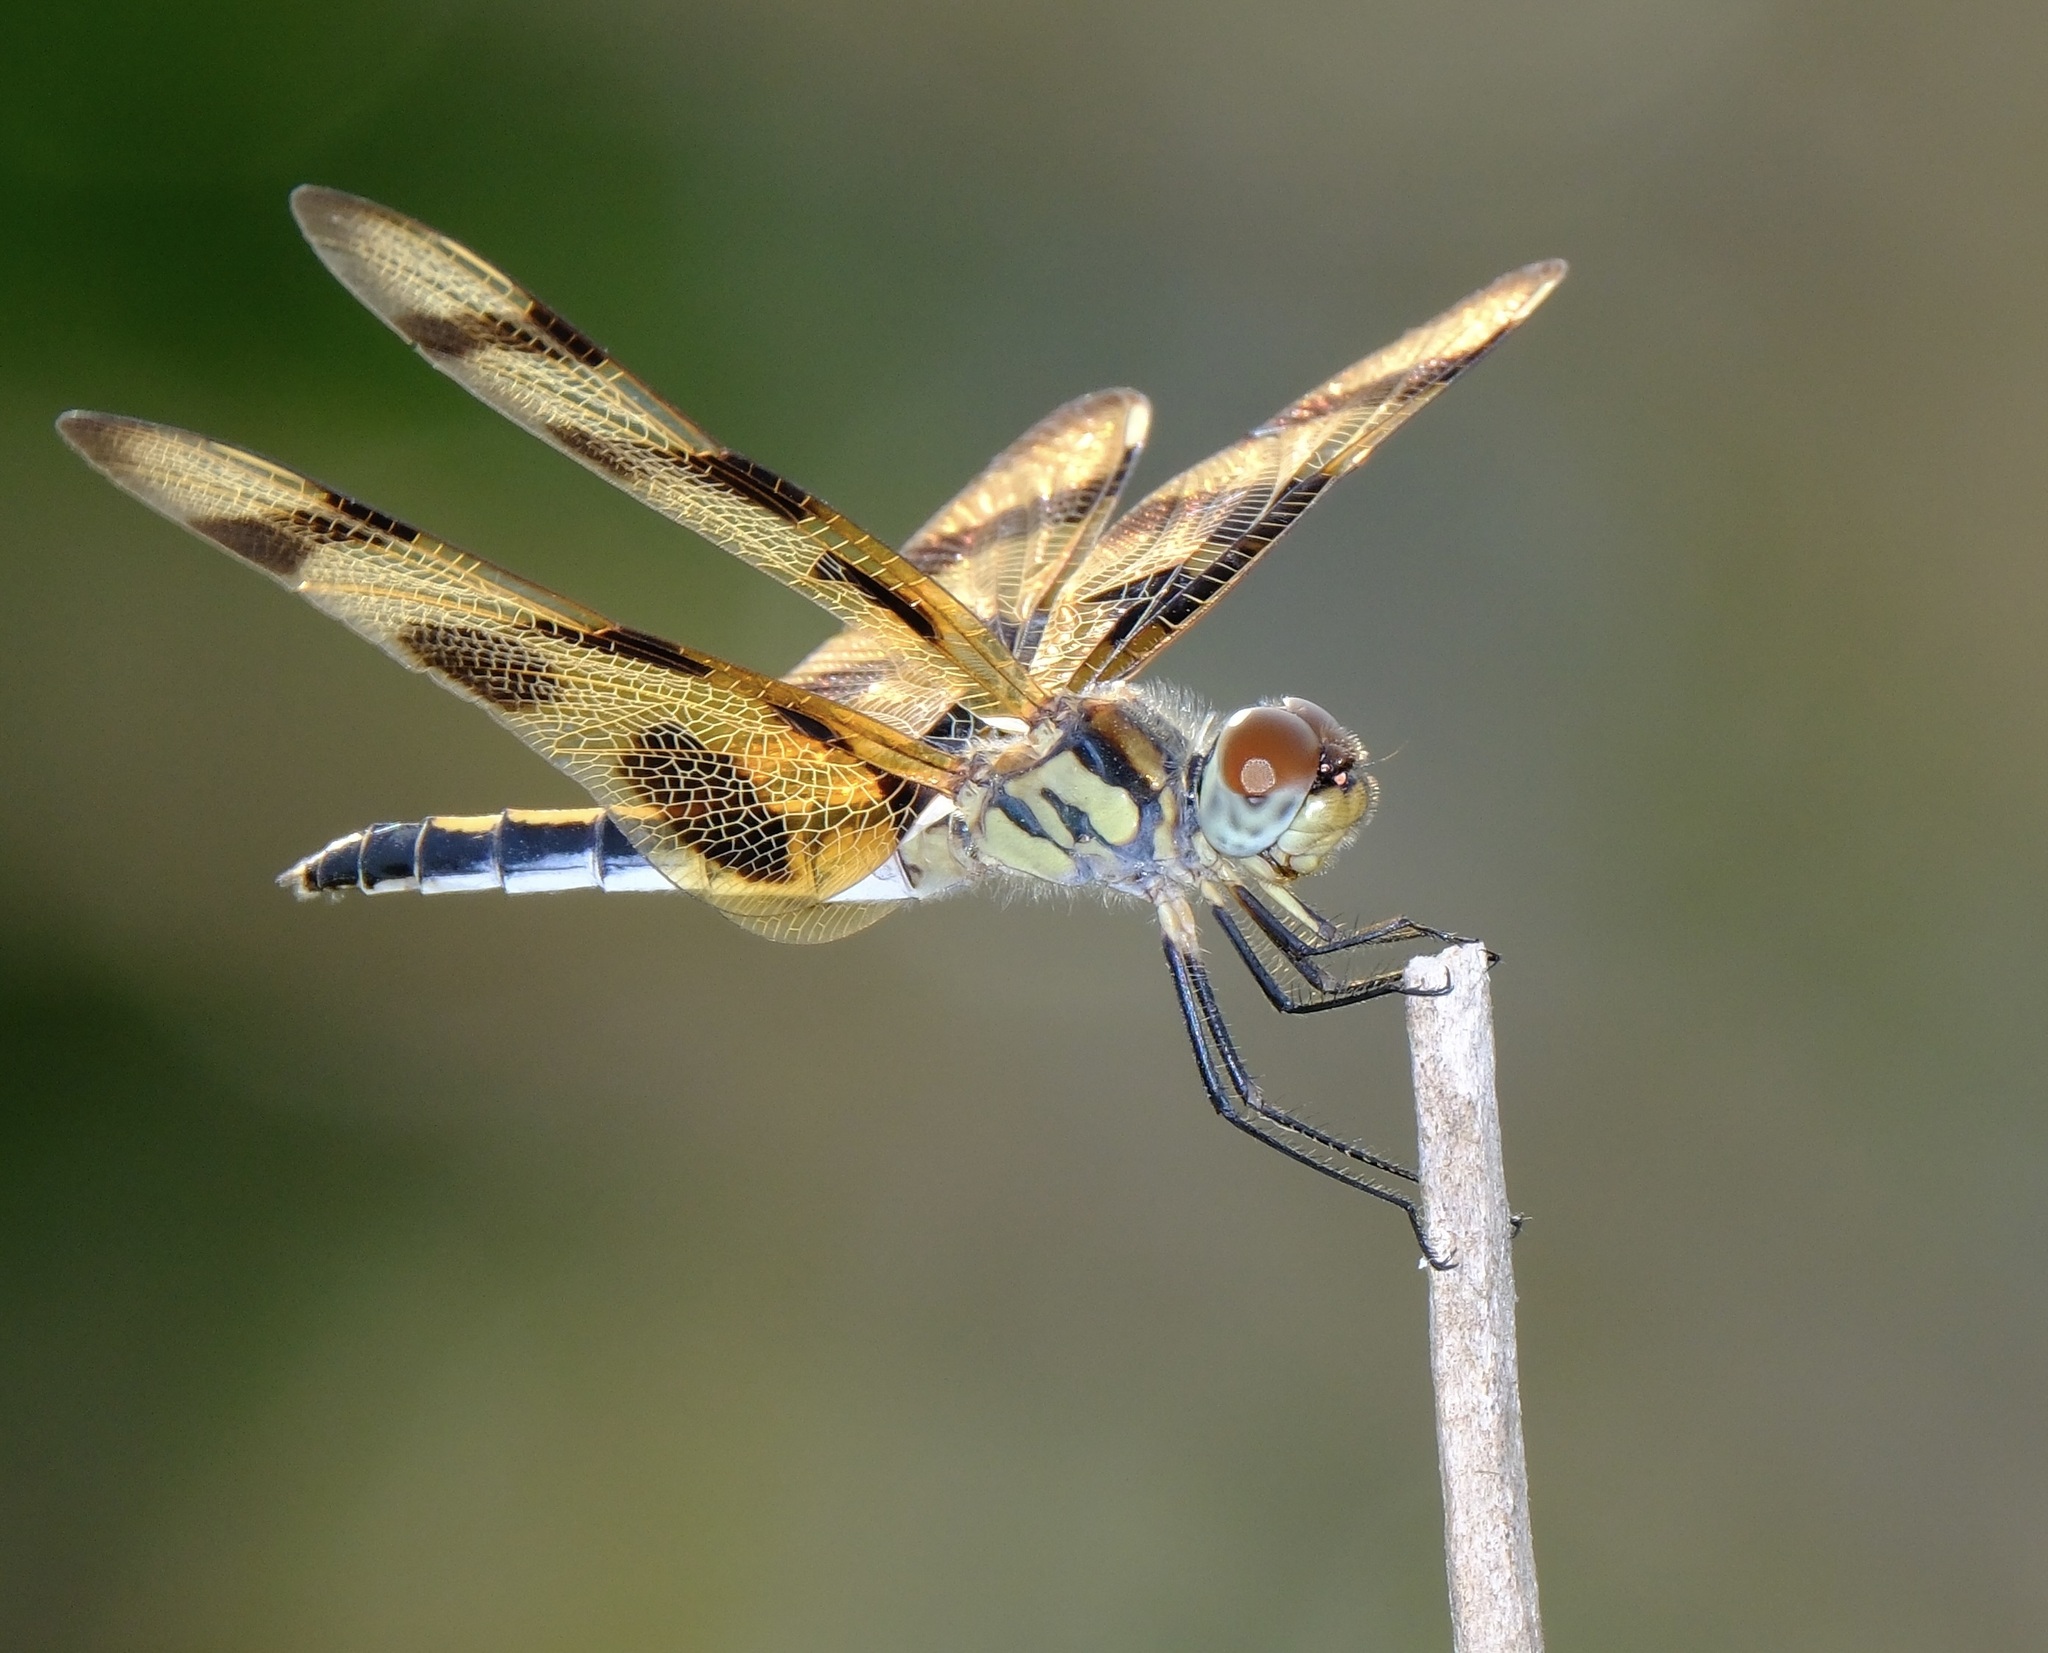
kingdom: Animalia
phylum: Arthropoda
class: Insecta
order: Odonata
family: Libellulidae
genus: Celithemis
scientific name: Celithemis eponina
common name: Halloween pennant
